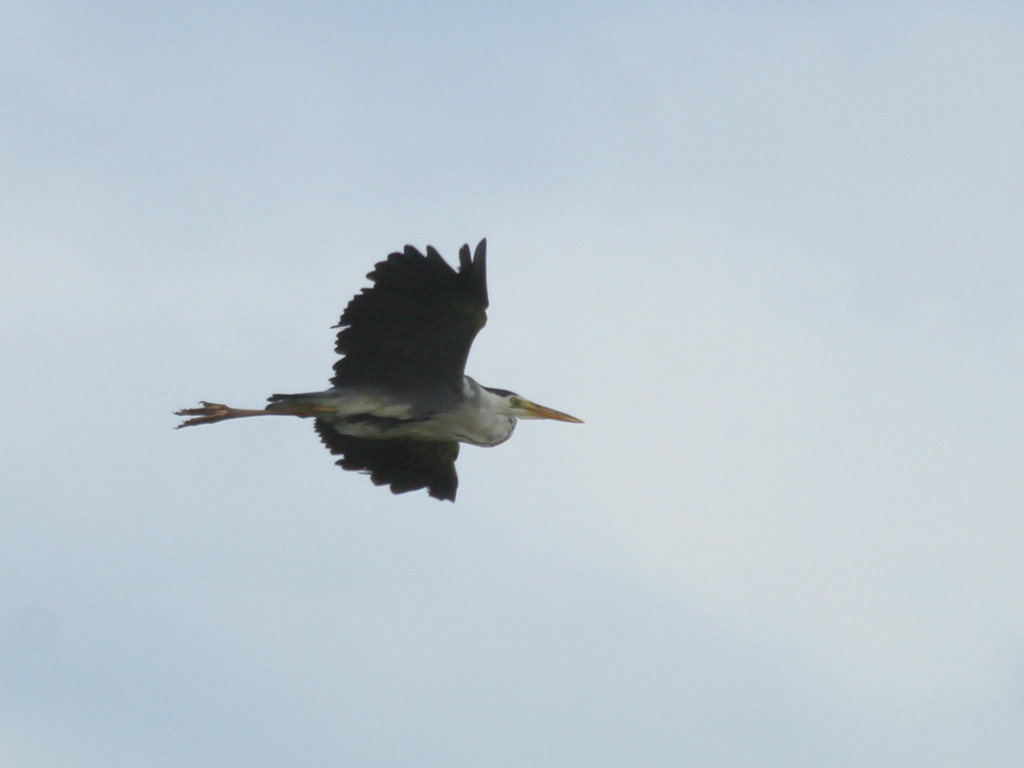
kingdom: Animalia
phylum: Chordata
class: Aves
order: Pelecaniformes
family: Ardeidae
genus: Ardea
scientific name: Ardea cinerea
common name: Grey heron
